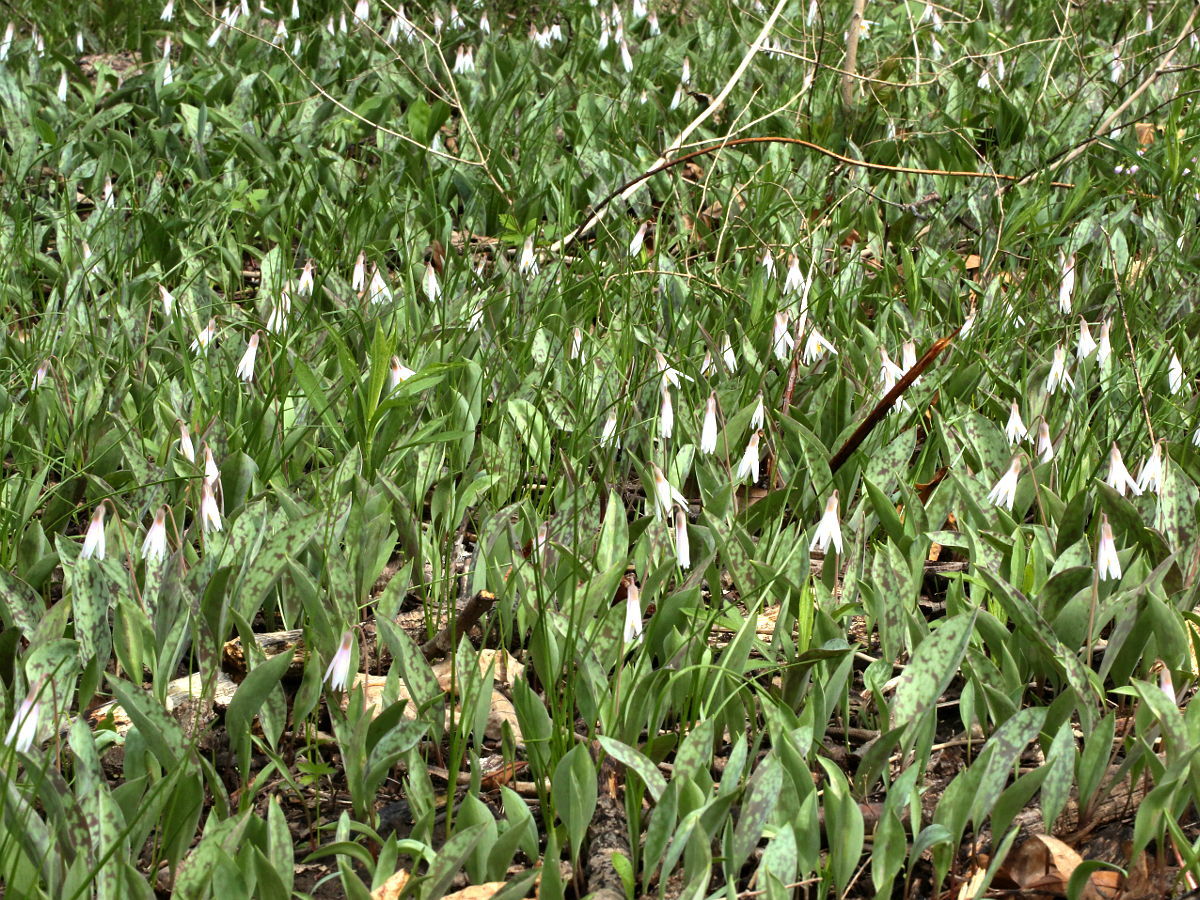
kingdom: Plantae
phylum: Tracheophyta
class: Liliopsida
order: Liliales
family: Liliaceae
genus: Erythronium
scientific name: Erythronium albidum
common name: White trout-lily
